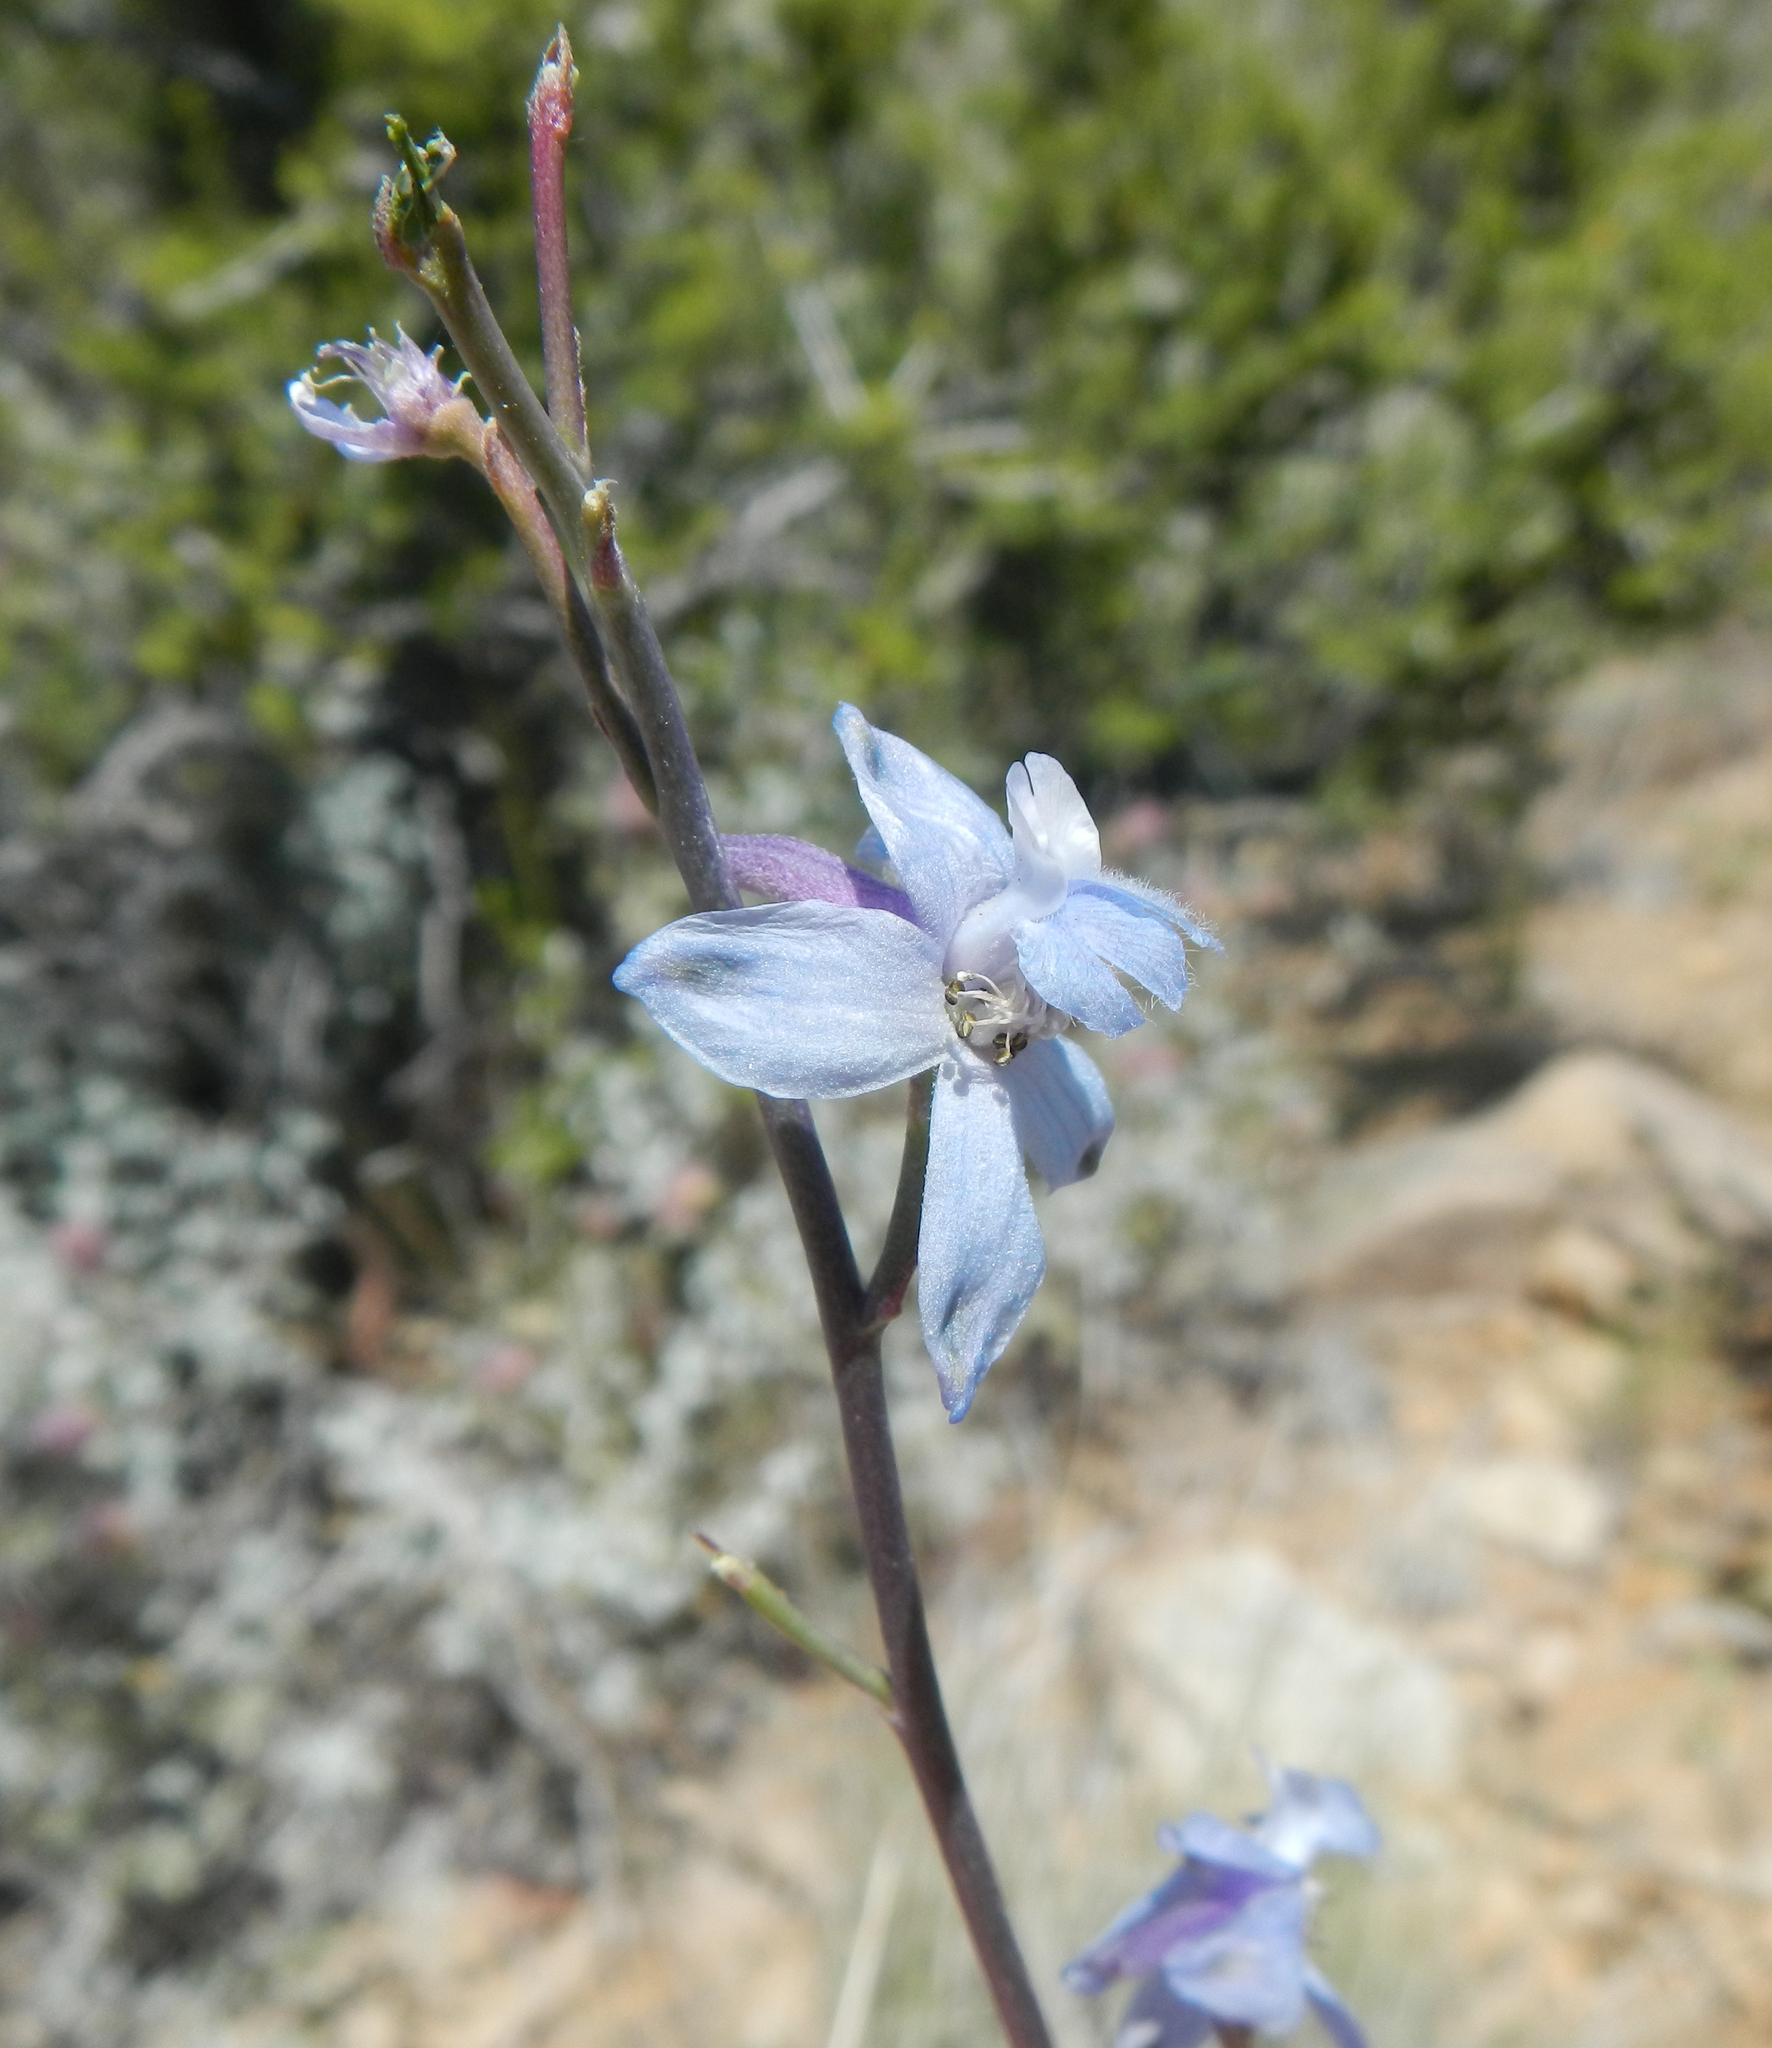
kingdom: Plantae
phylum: Tracheophyta
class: Magnoliopsida
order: Ranunculales
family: Ranunculaceae
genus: Delphinium
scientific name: Delphinium parishii
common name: Apache larkspur
